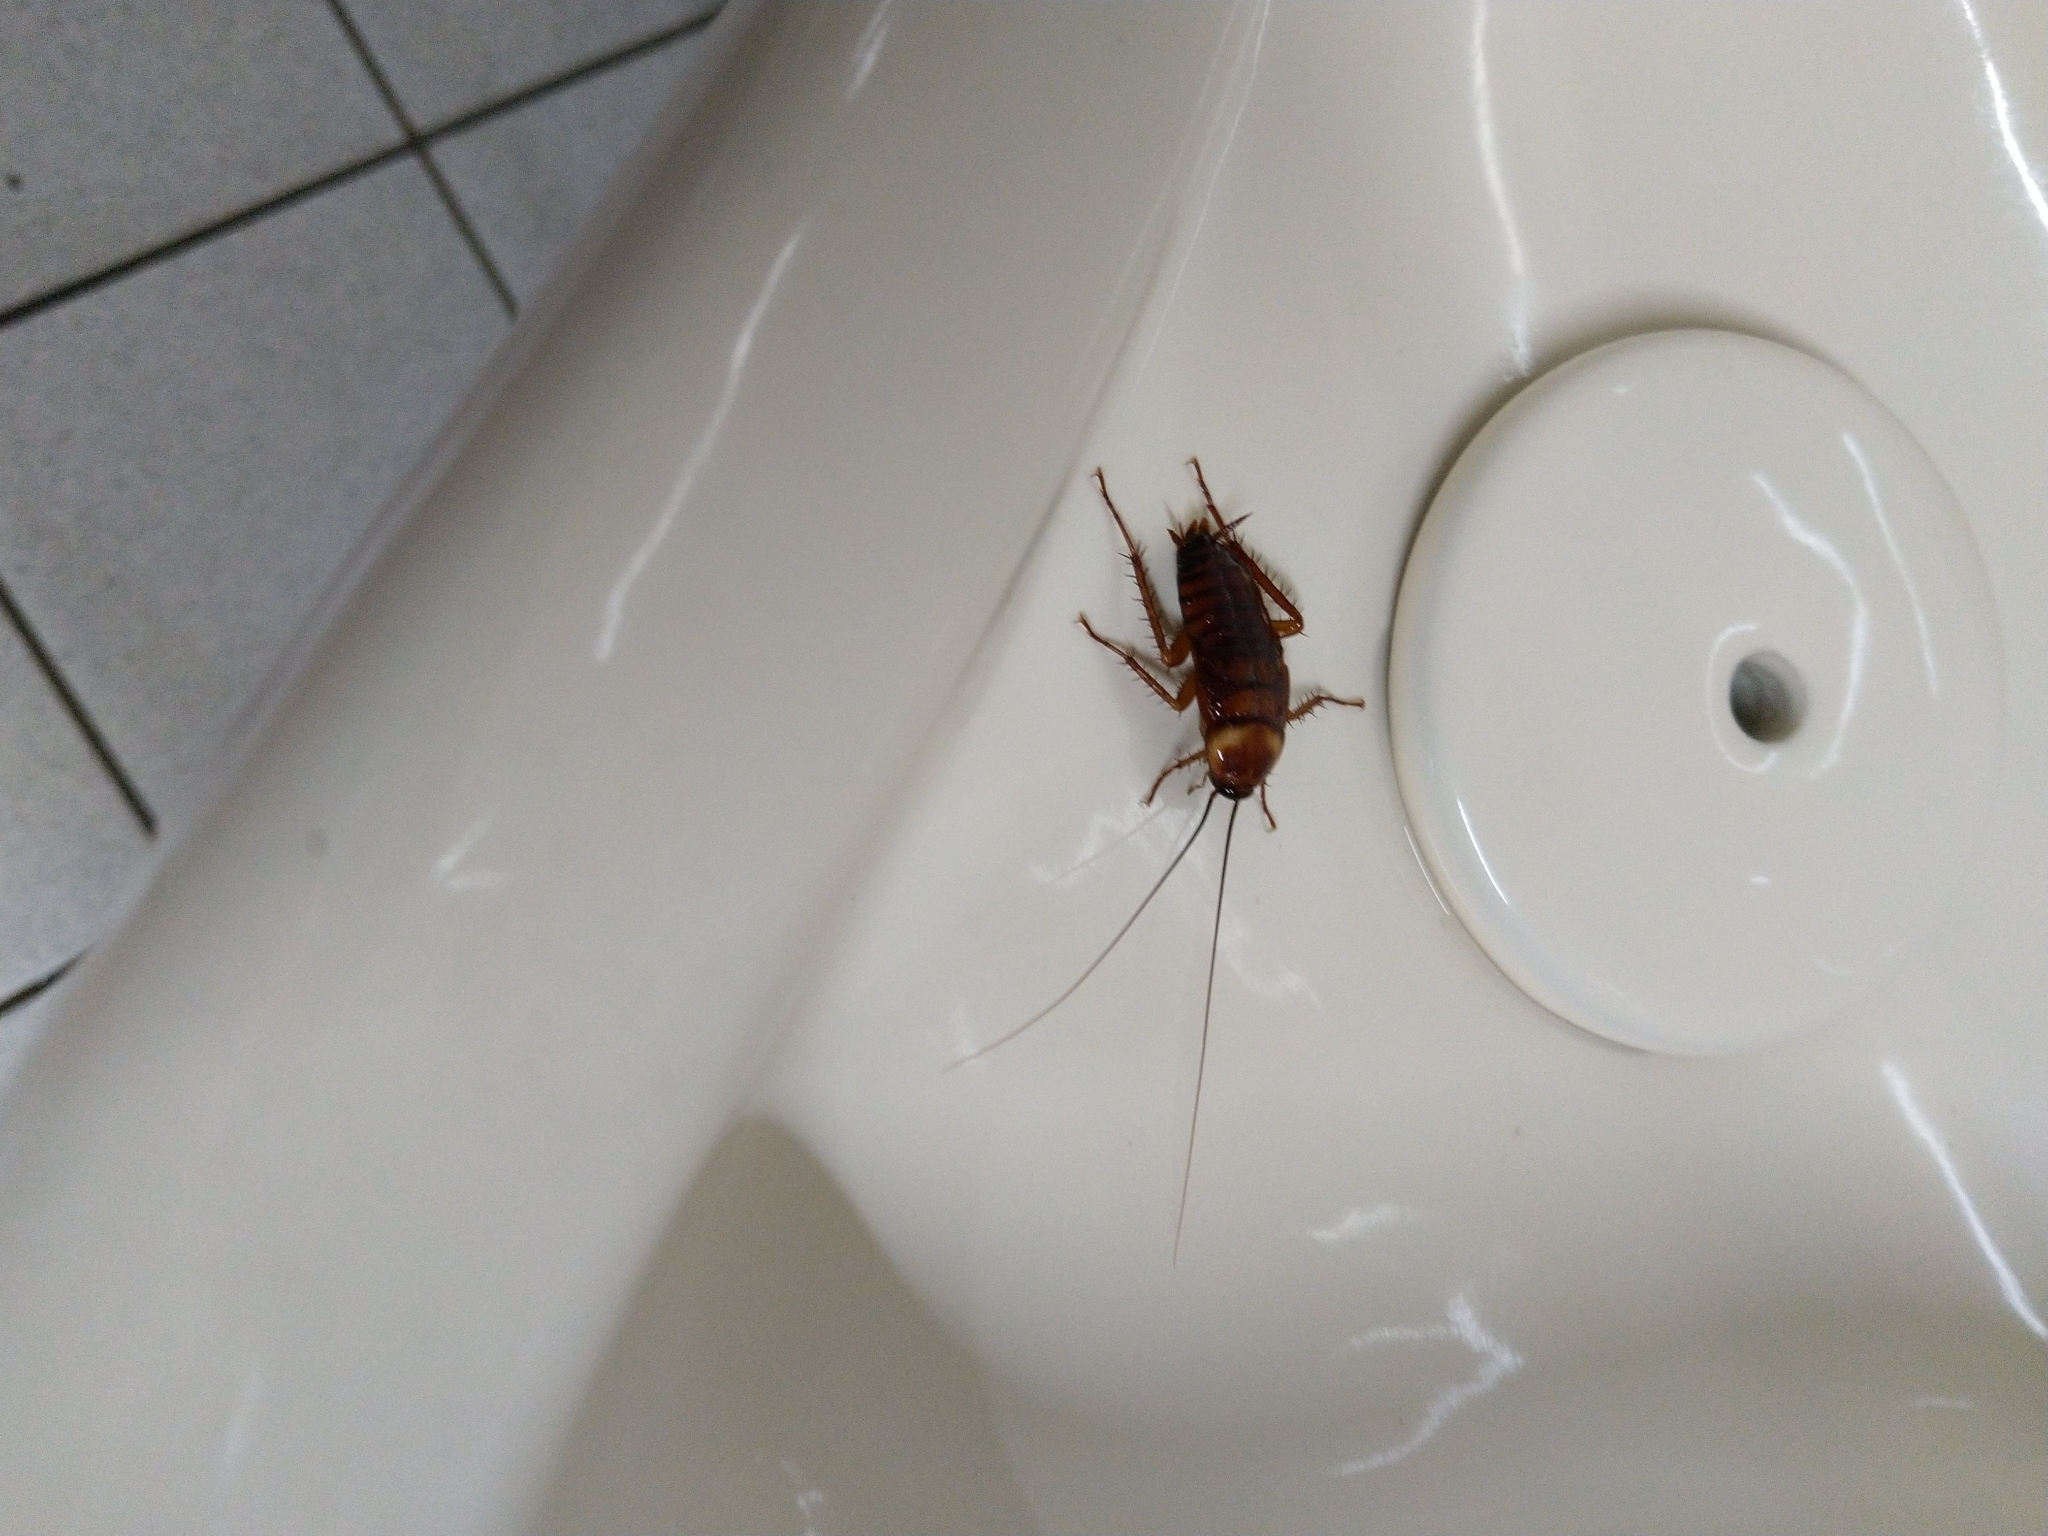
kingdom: Animalia
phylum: Arthropoda
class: Insecta
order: Blattodea
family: Blattidae
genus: Periplaneta
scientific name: Periplaneta americana
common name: American cockroach
